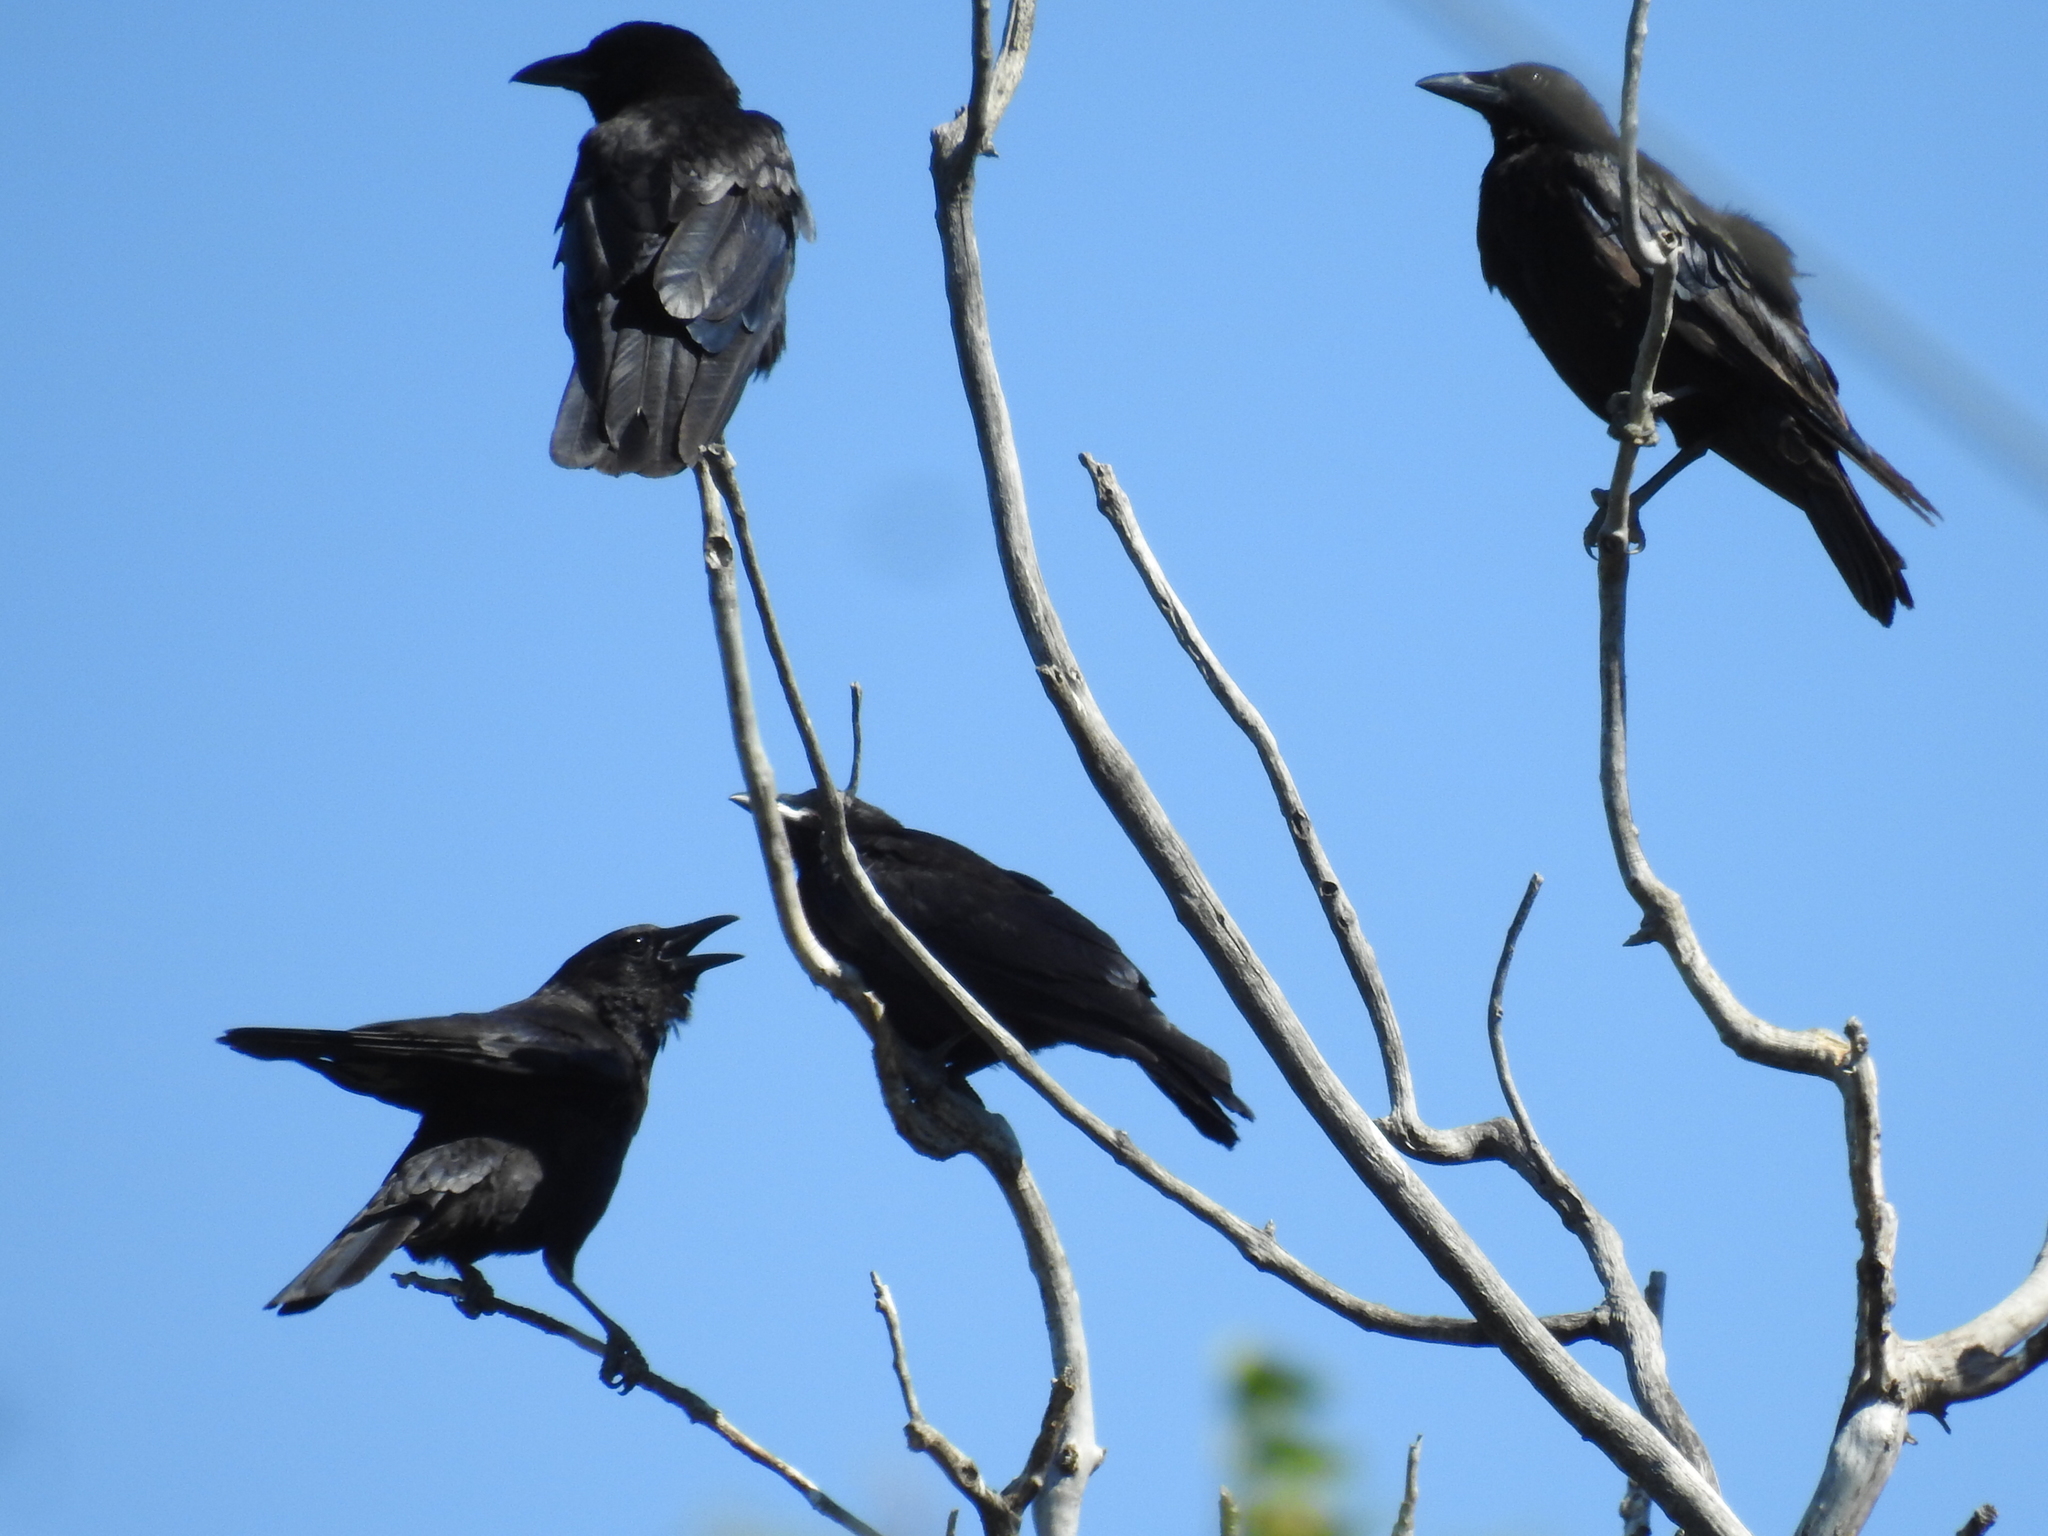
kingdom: Animalia
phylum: Chordata
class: Aves
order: Passeriformes
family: Corvidae
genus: Corvus
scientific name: Corvus brachyrhynchos
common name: American crow
